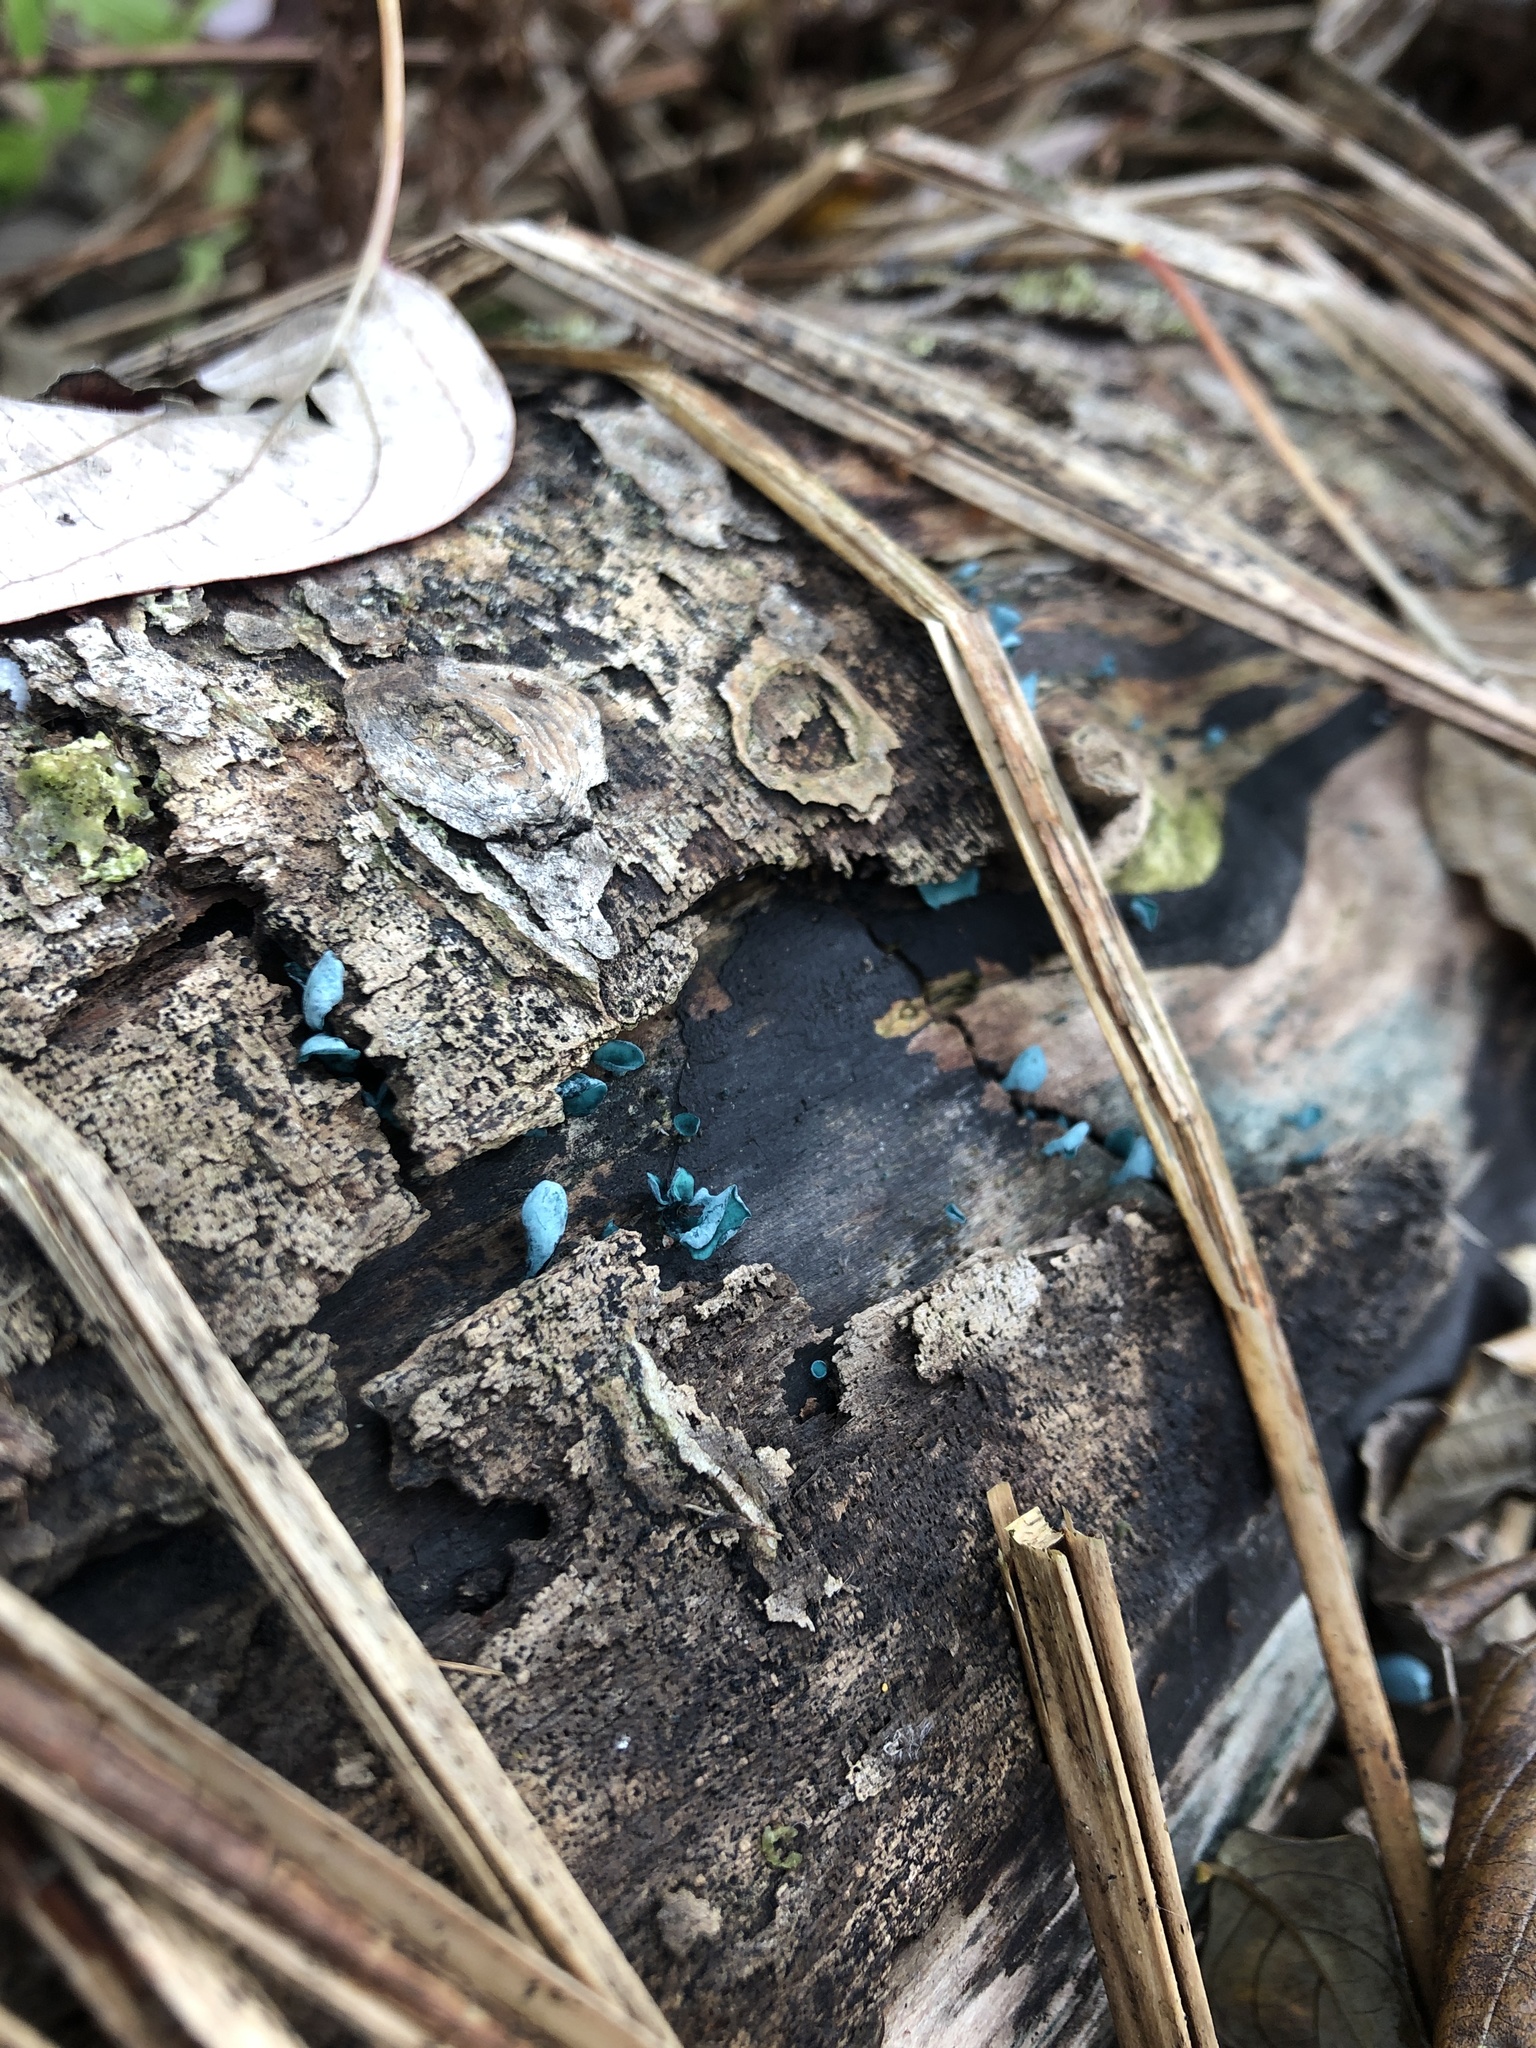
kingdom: Fungi
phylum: Ascomycota
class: Leotiomycetes
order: Helotiales
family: Chlorociboriaceae
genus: Chlorociboria
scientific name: Chlorociboria aeruginascens
